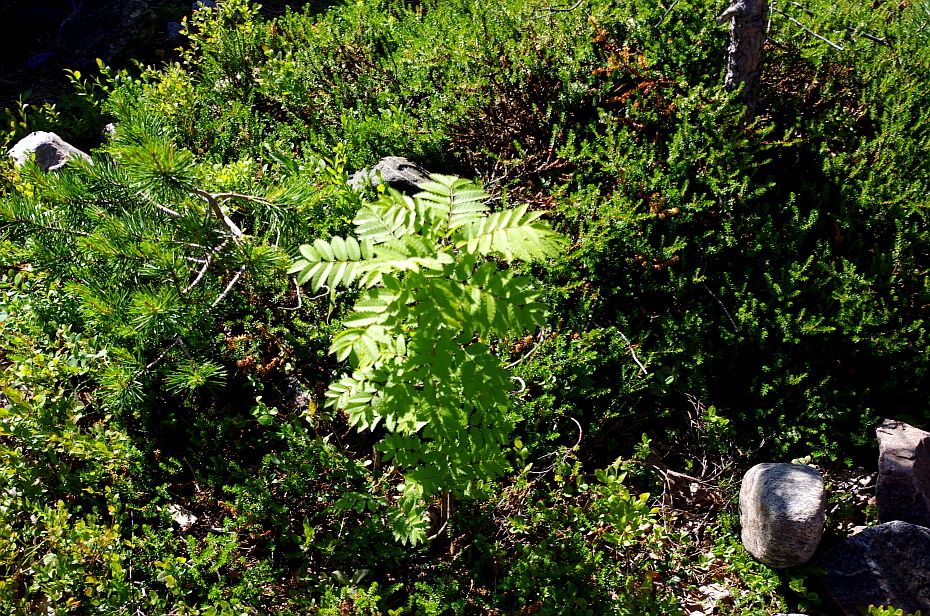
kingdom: Plantae
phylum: Tracheophyta
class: Magnoliopsida
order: Rosales
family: Rosaceae
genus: Sorbus
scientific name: Sorbus aucuparia
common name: Rowan
